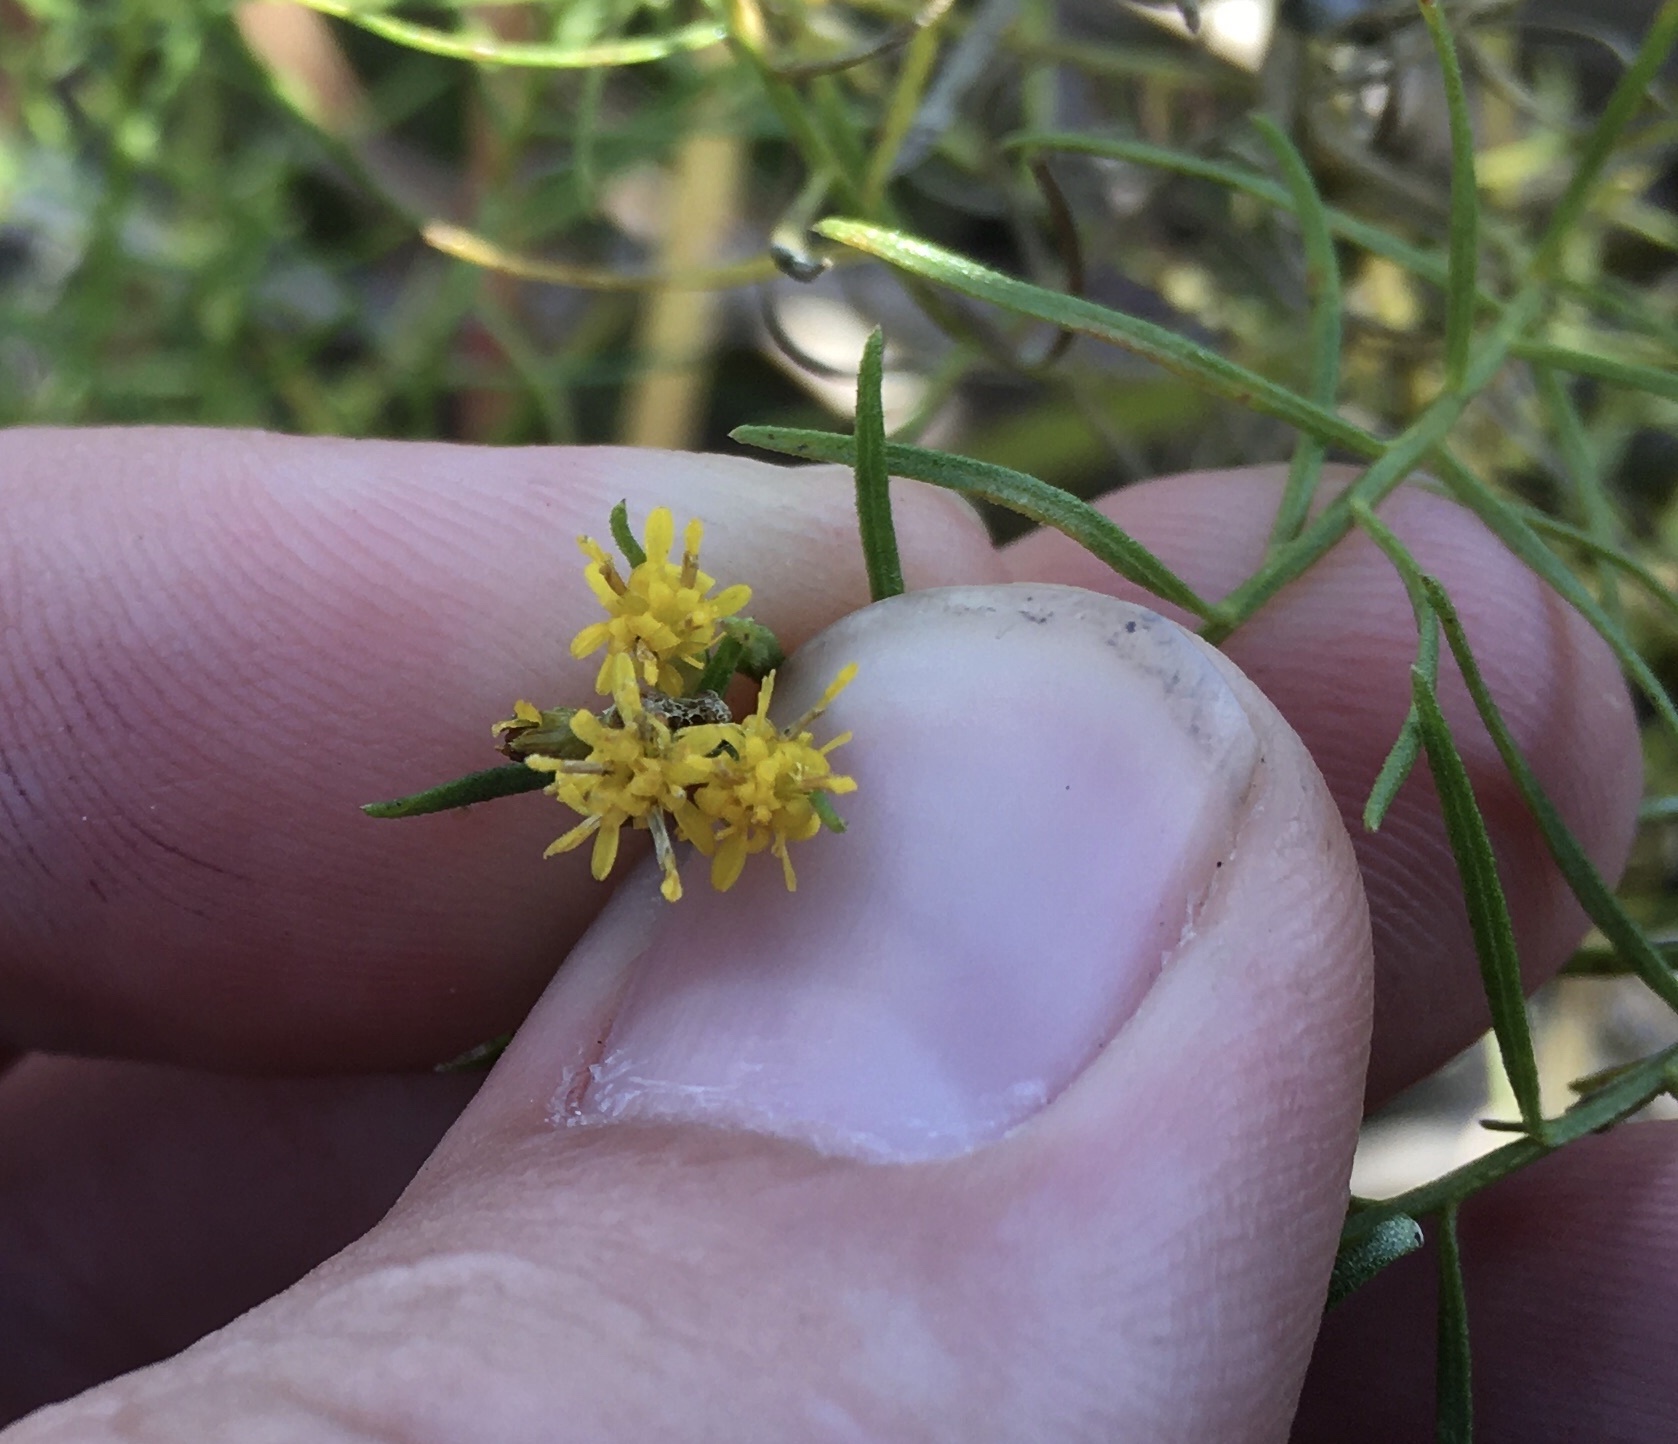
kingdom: Plantae
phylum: Tracheophyta
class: Magnoliopsida
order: Asterales
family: Asteraceae
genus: Euthamia
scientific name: Euthamia caroliniana
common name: Coastal plain goldentop
